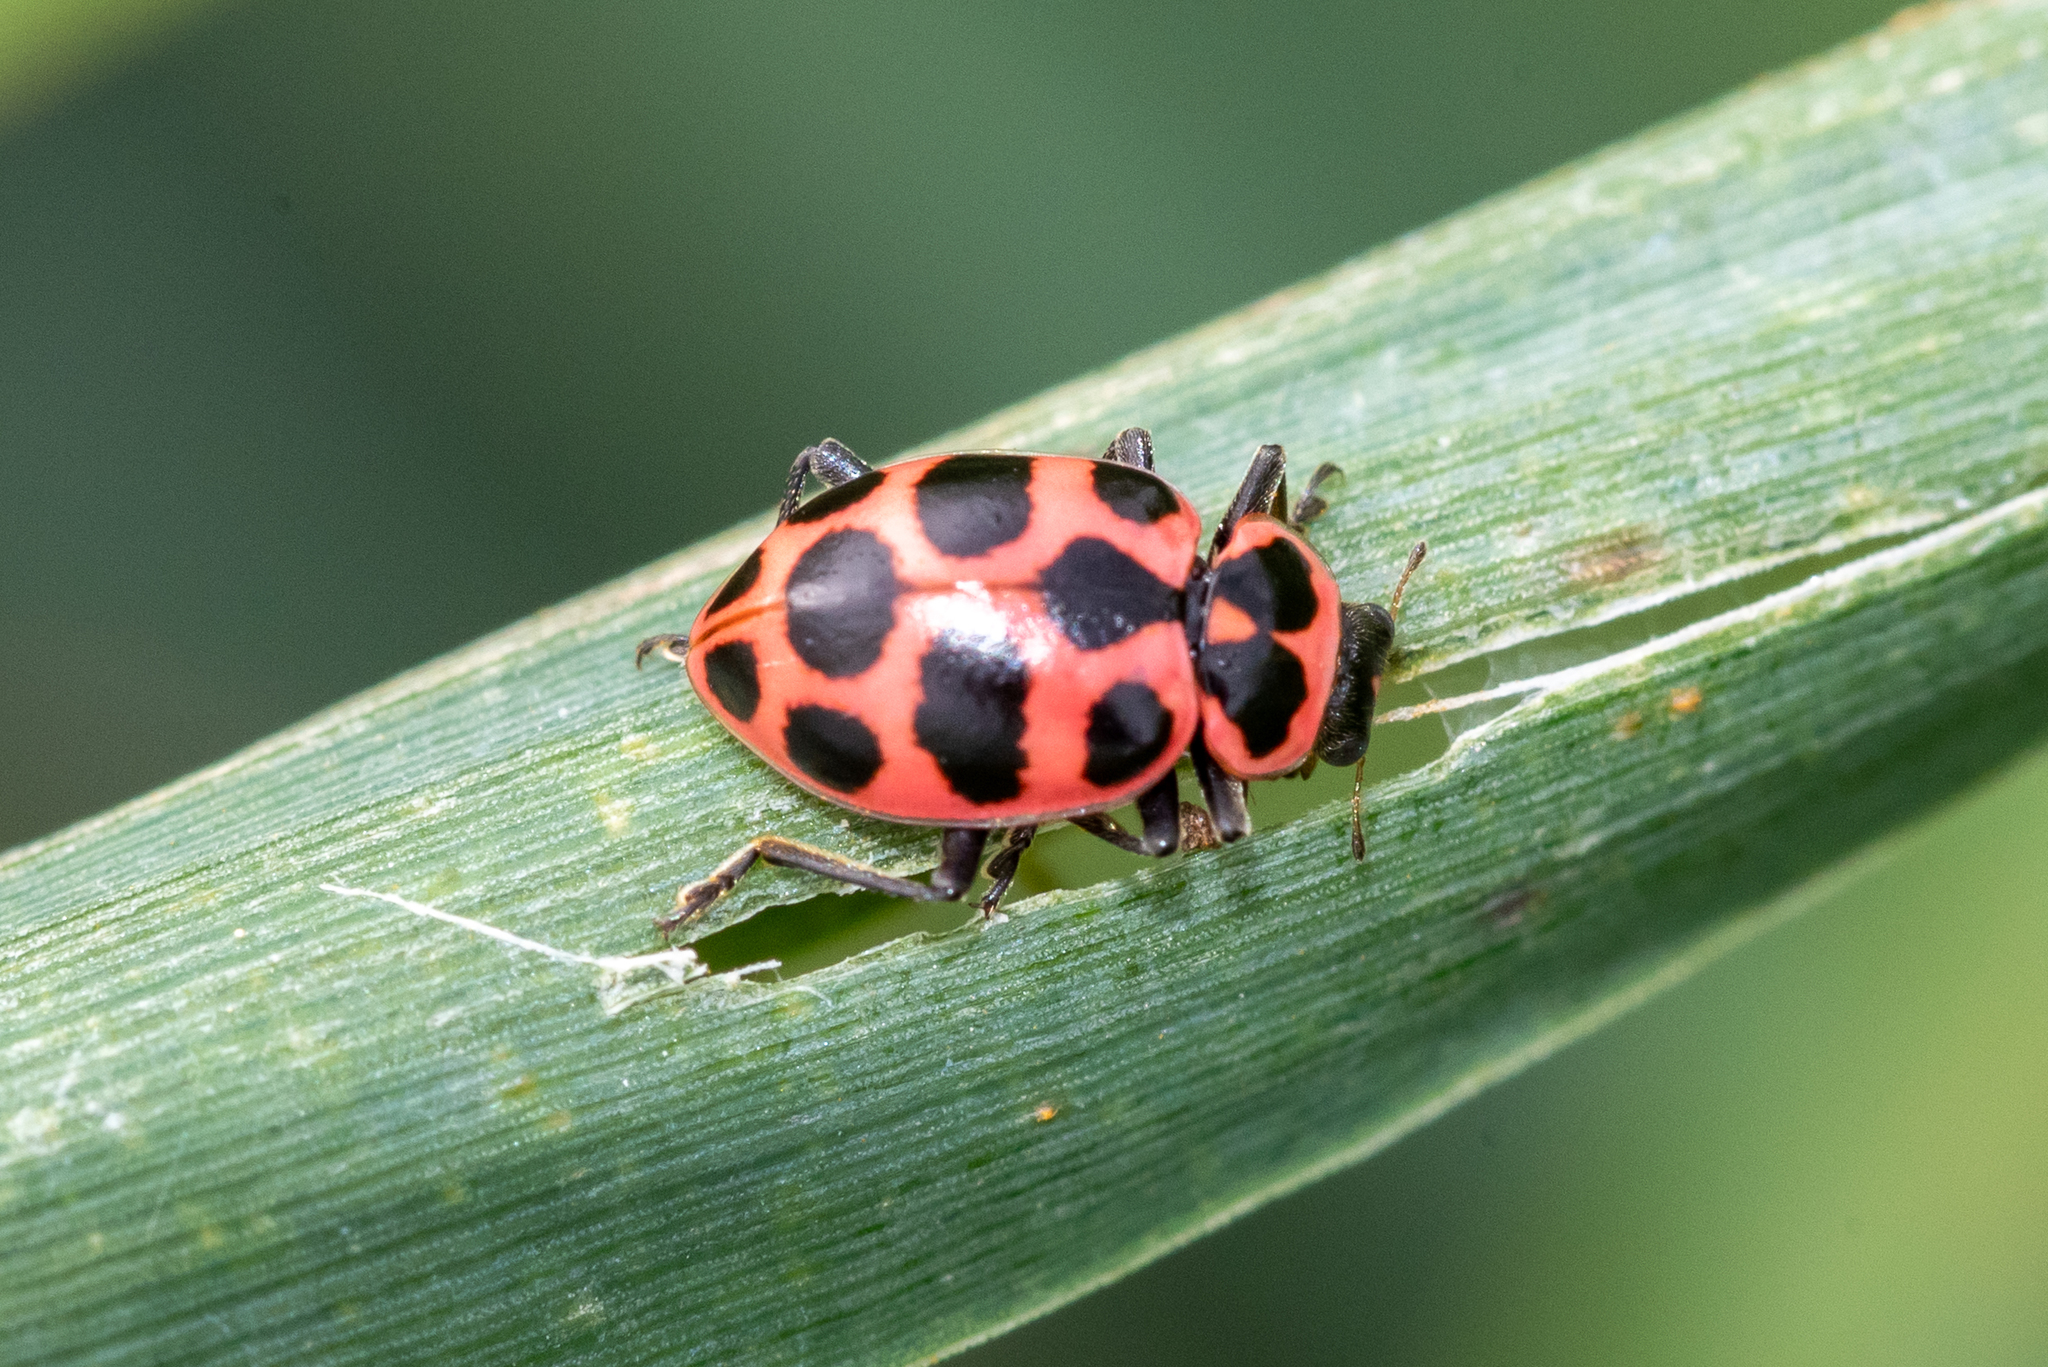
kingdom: Animalia
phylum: Arthropoda
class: Insecta
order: Coleoptera
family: Coccinellidae
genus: Coleomegilla
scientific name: Coleomegilla maculata
